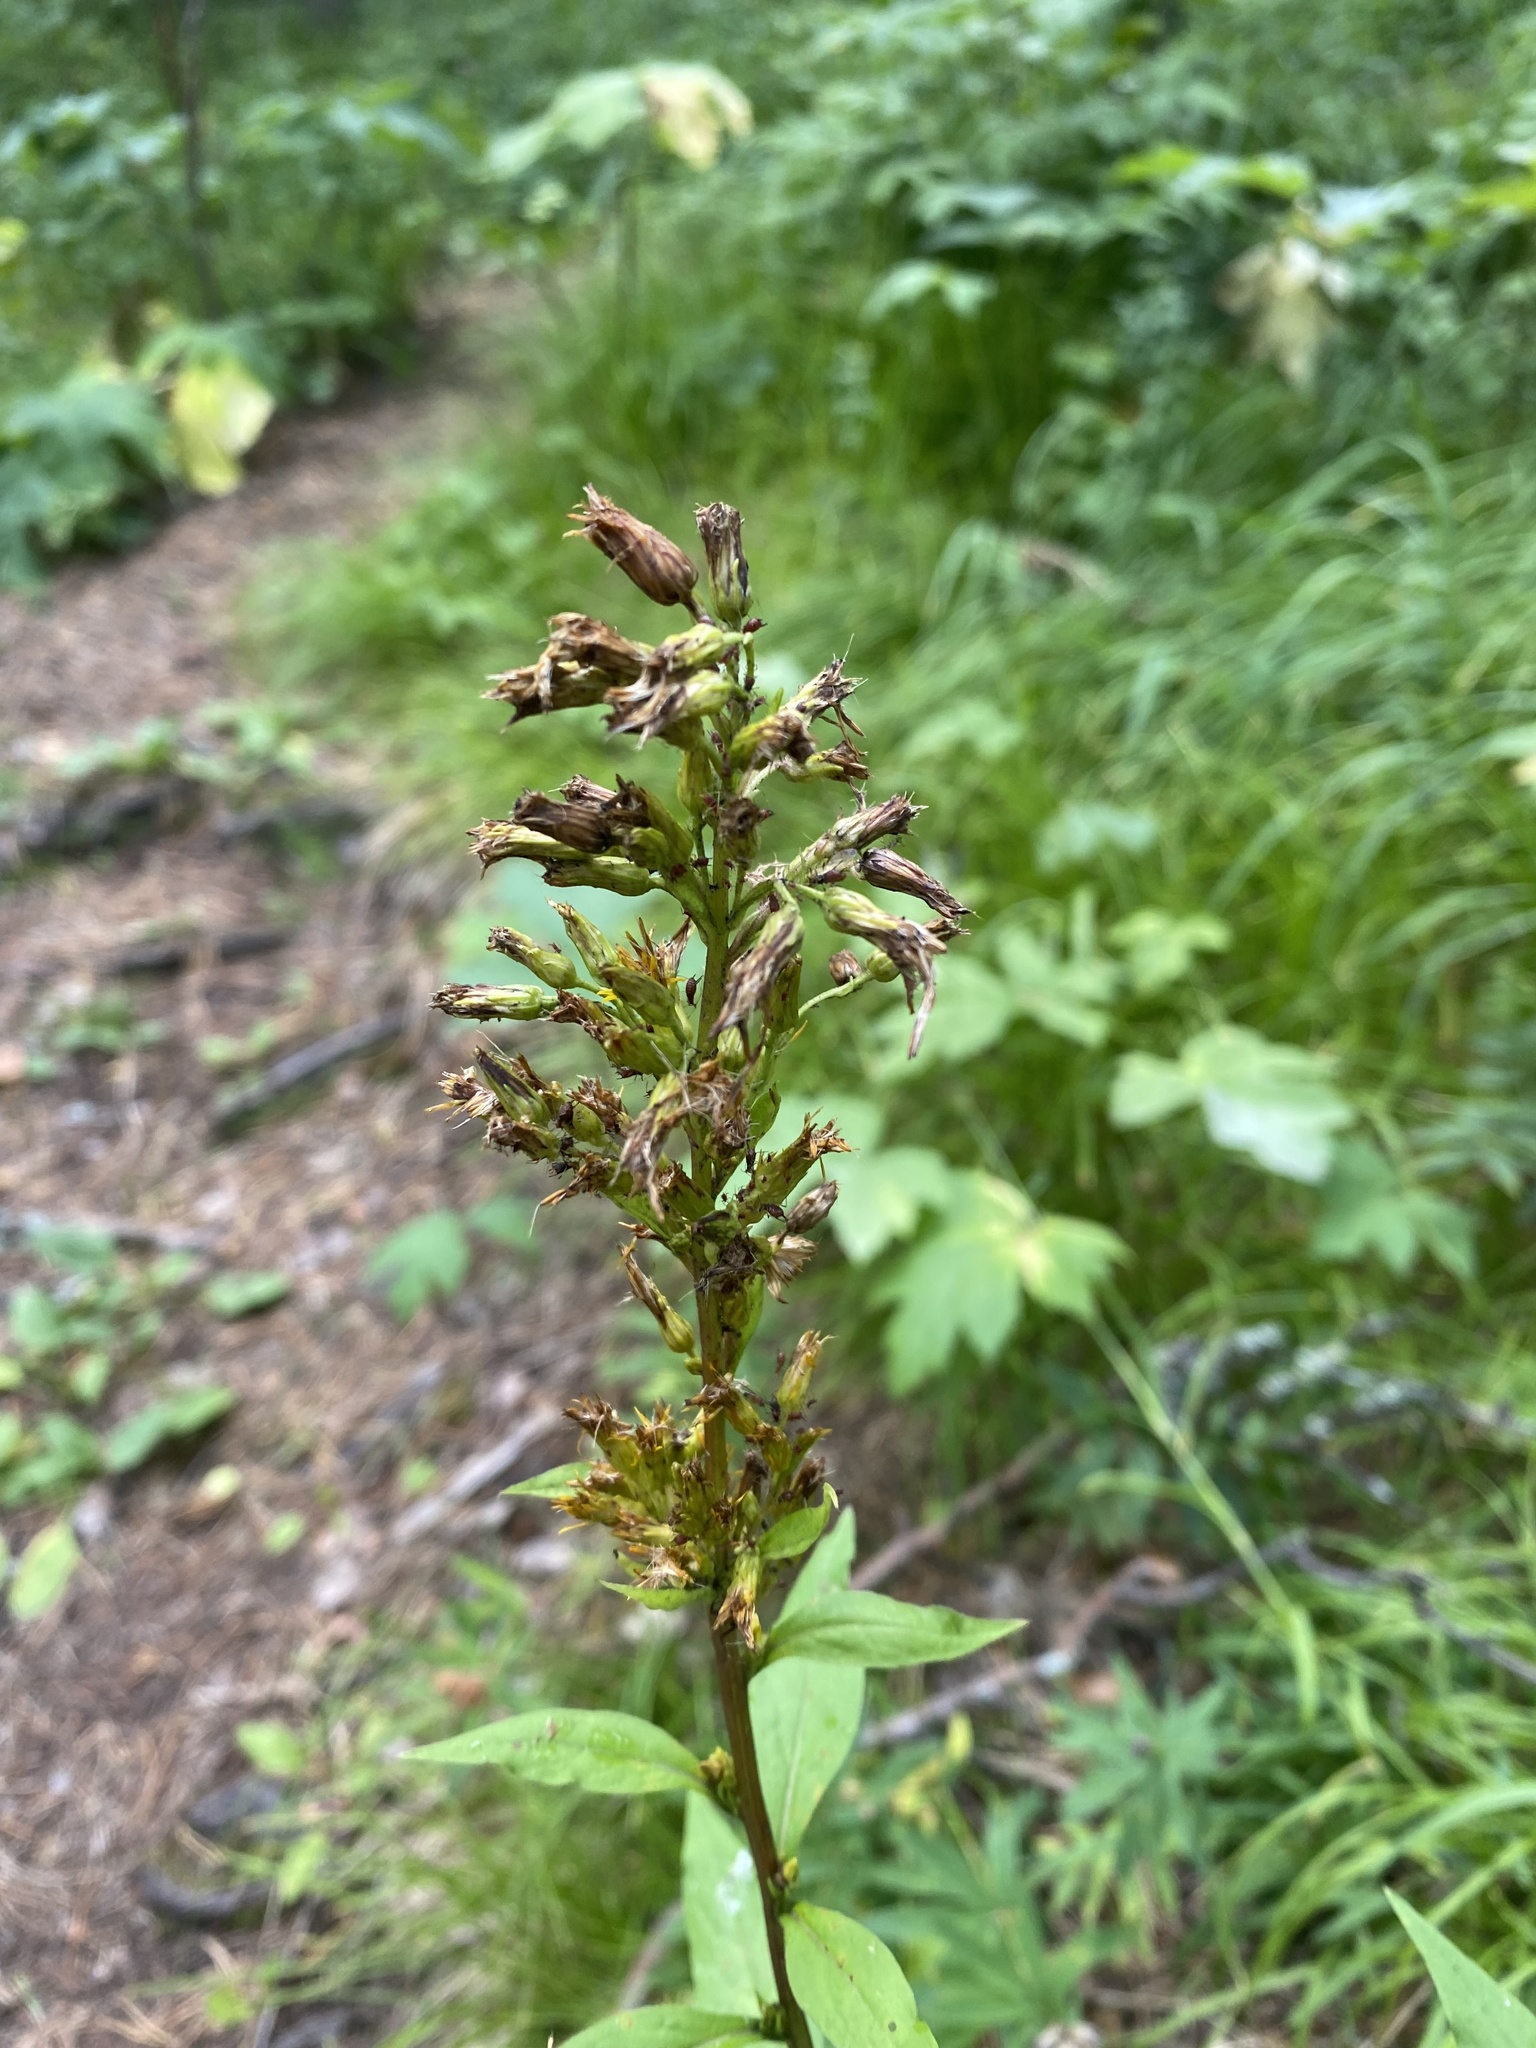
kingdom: Plantae
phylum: Tracheophyta
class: Magnoliopsida
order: Asterales
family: Asteraceae
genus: Solidago
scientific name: Solidago virgaurea
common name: Goldenrod
